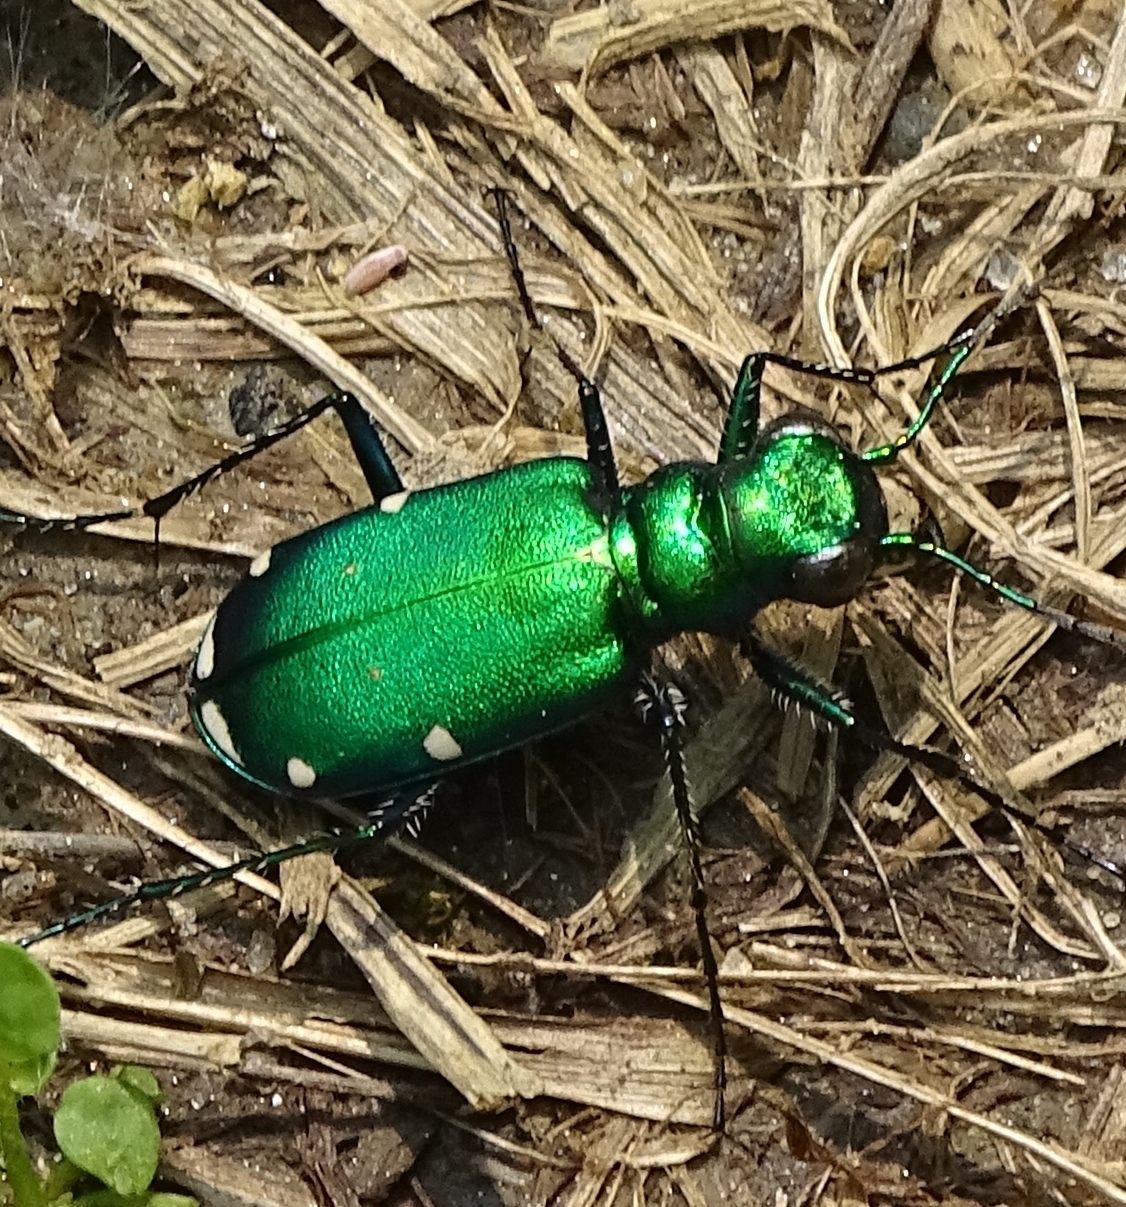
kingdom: Animalia
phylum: Arthropoda
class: Insecta
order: Coleoptera
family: Carabidae
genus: Cicindela
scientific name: Cicindela sexguttata
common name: Six-spotted tiger beetle
